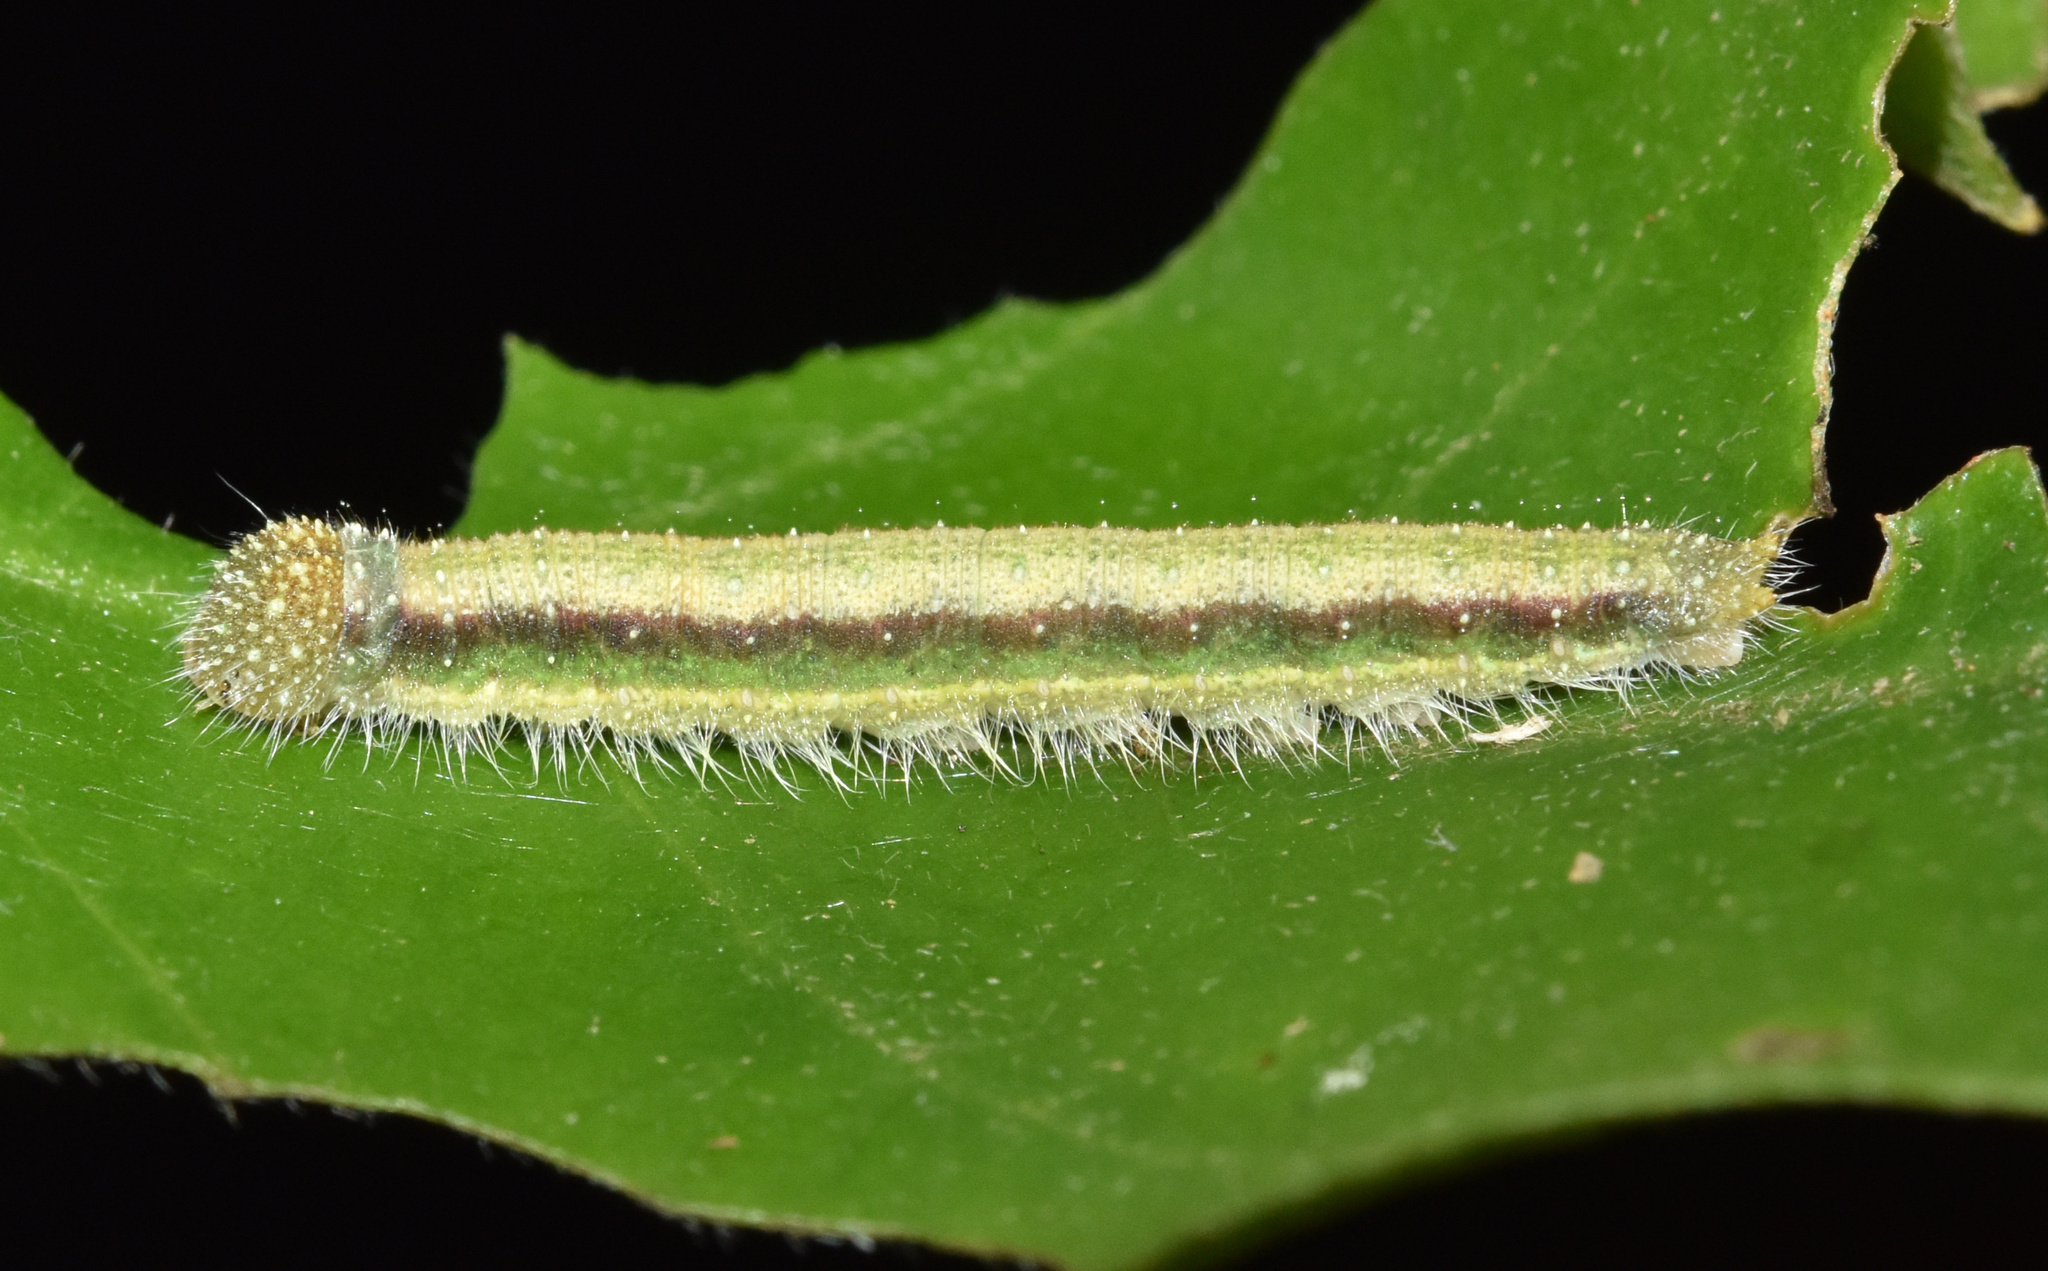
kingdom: Animalia
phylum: Arthropoda
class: Insecta
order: Lepidoptera
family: Pieridae
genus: Dixeia
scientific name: Dixeia pigea
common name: Ant-heap small white
